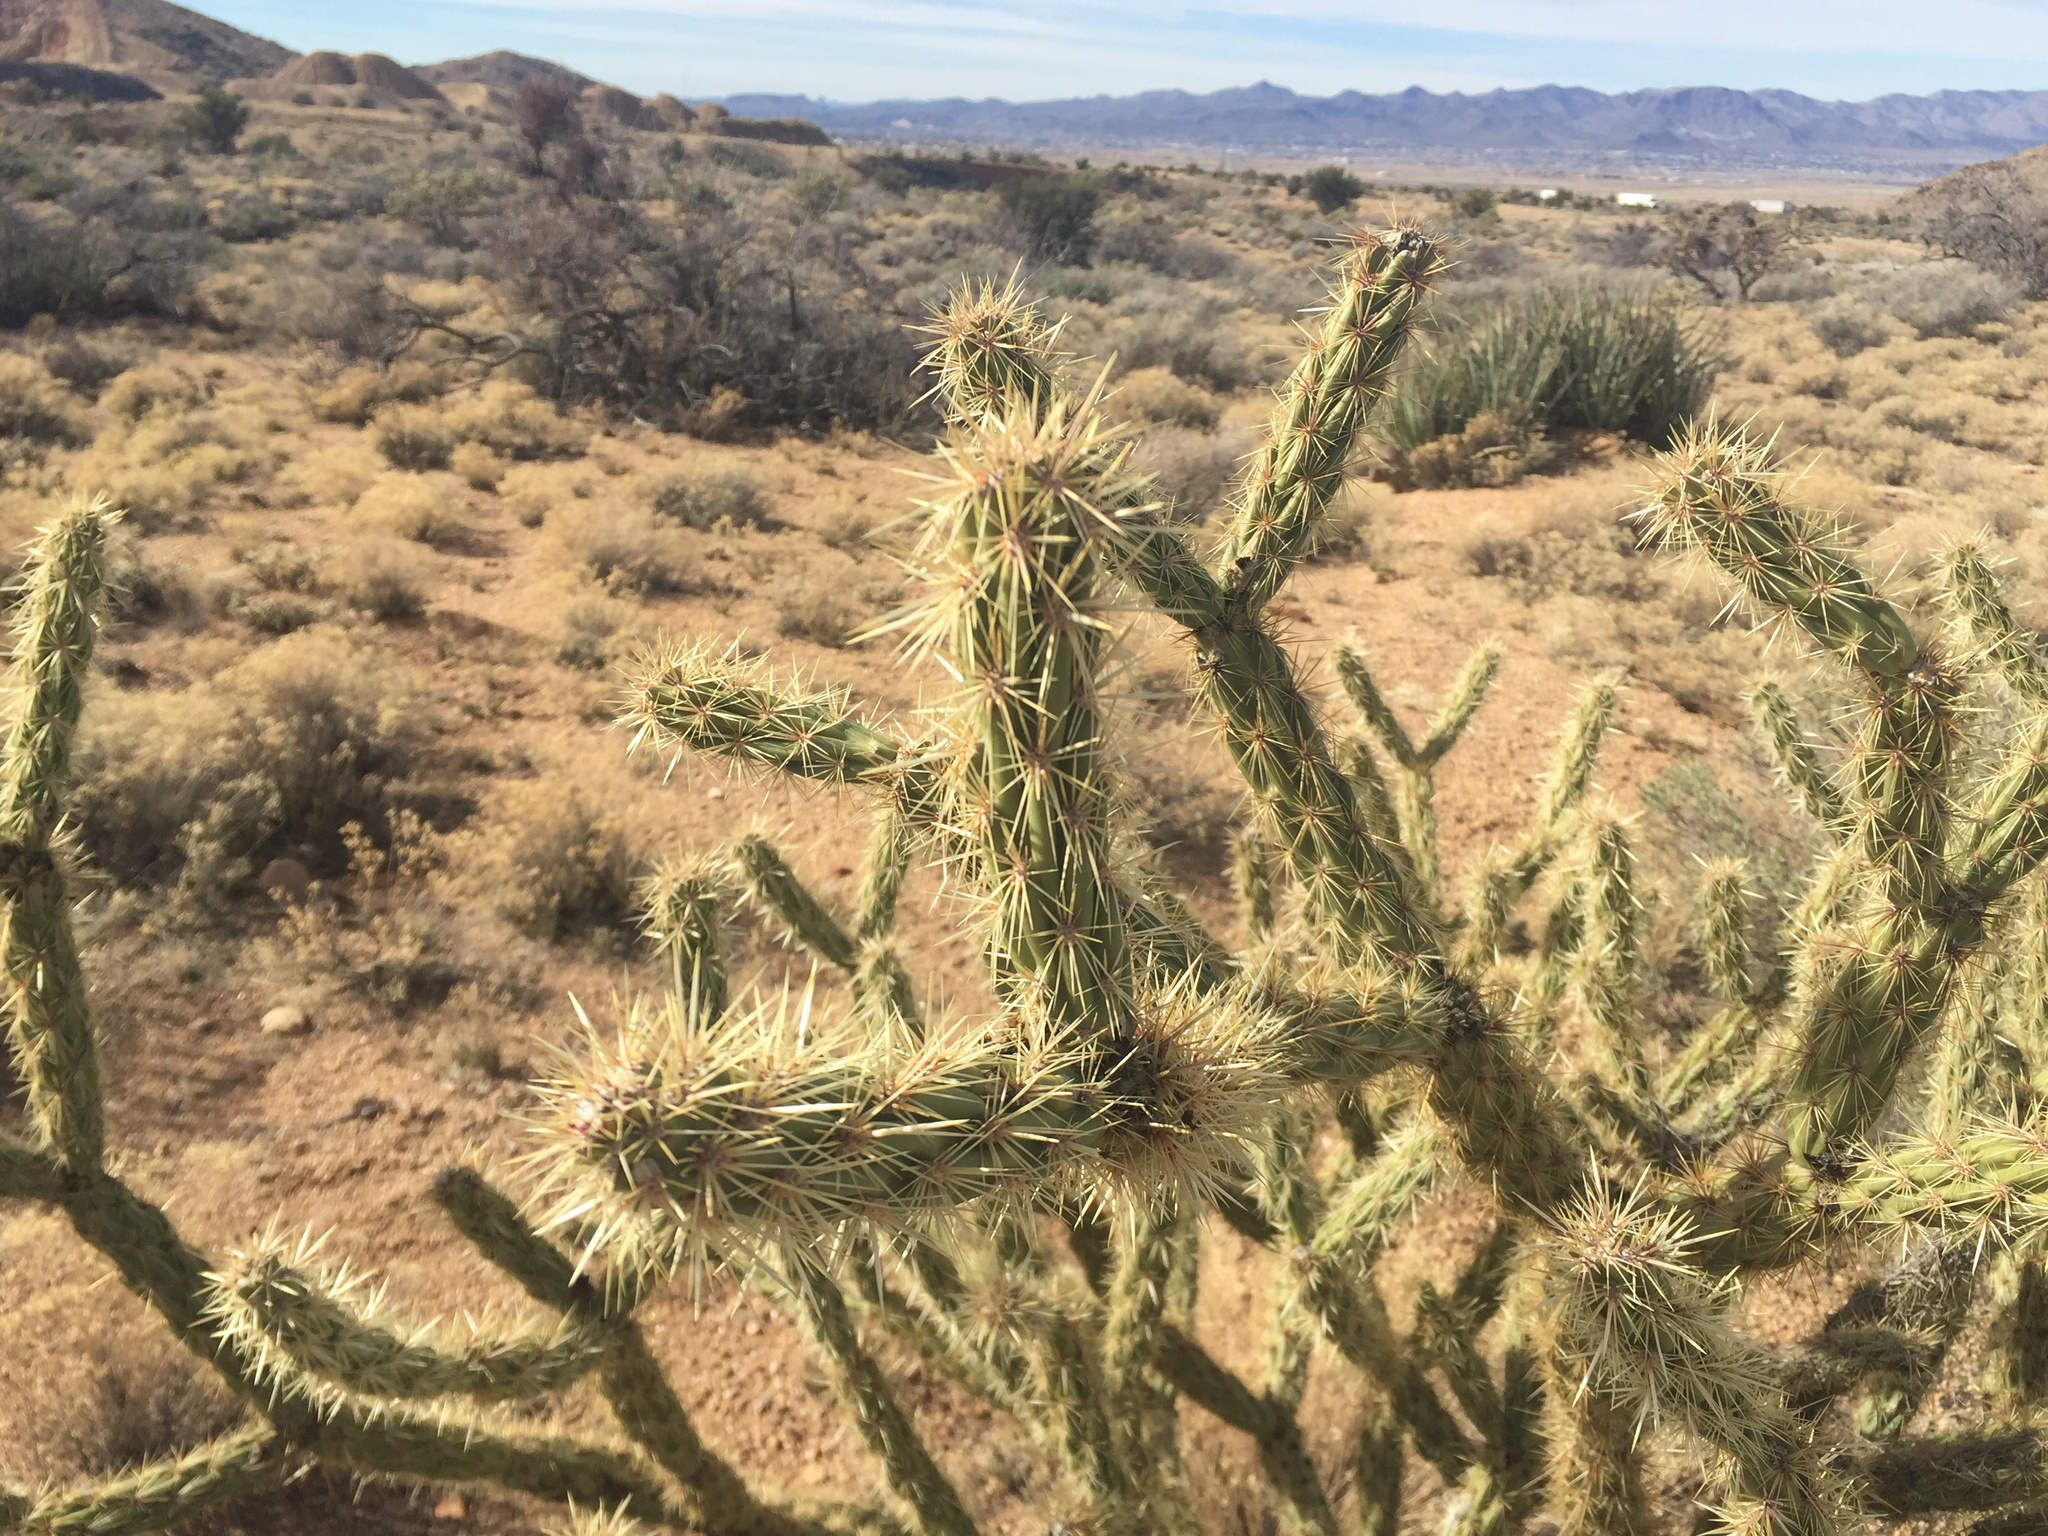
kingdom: Plantae
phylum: Tracheophyta
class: Magnoliopsida
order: Caryophyllales
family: Cactaceae
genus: Cylindropuntia
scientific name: Cylindropuntia acanthocarpa
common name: Buckhorn cholla
